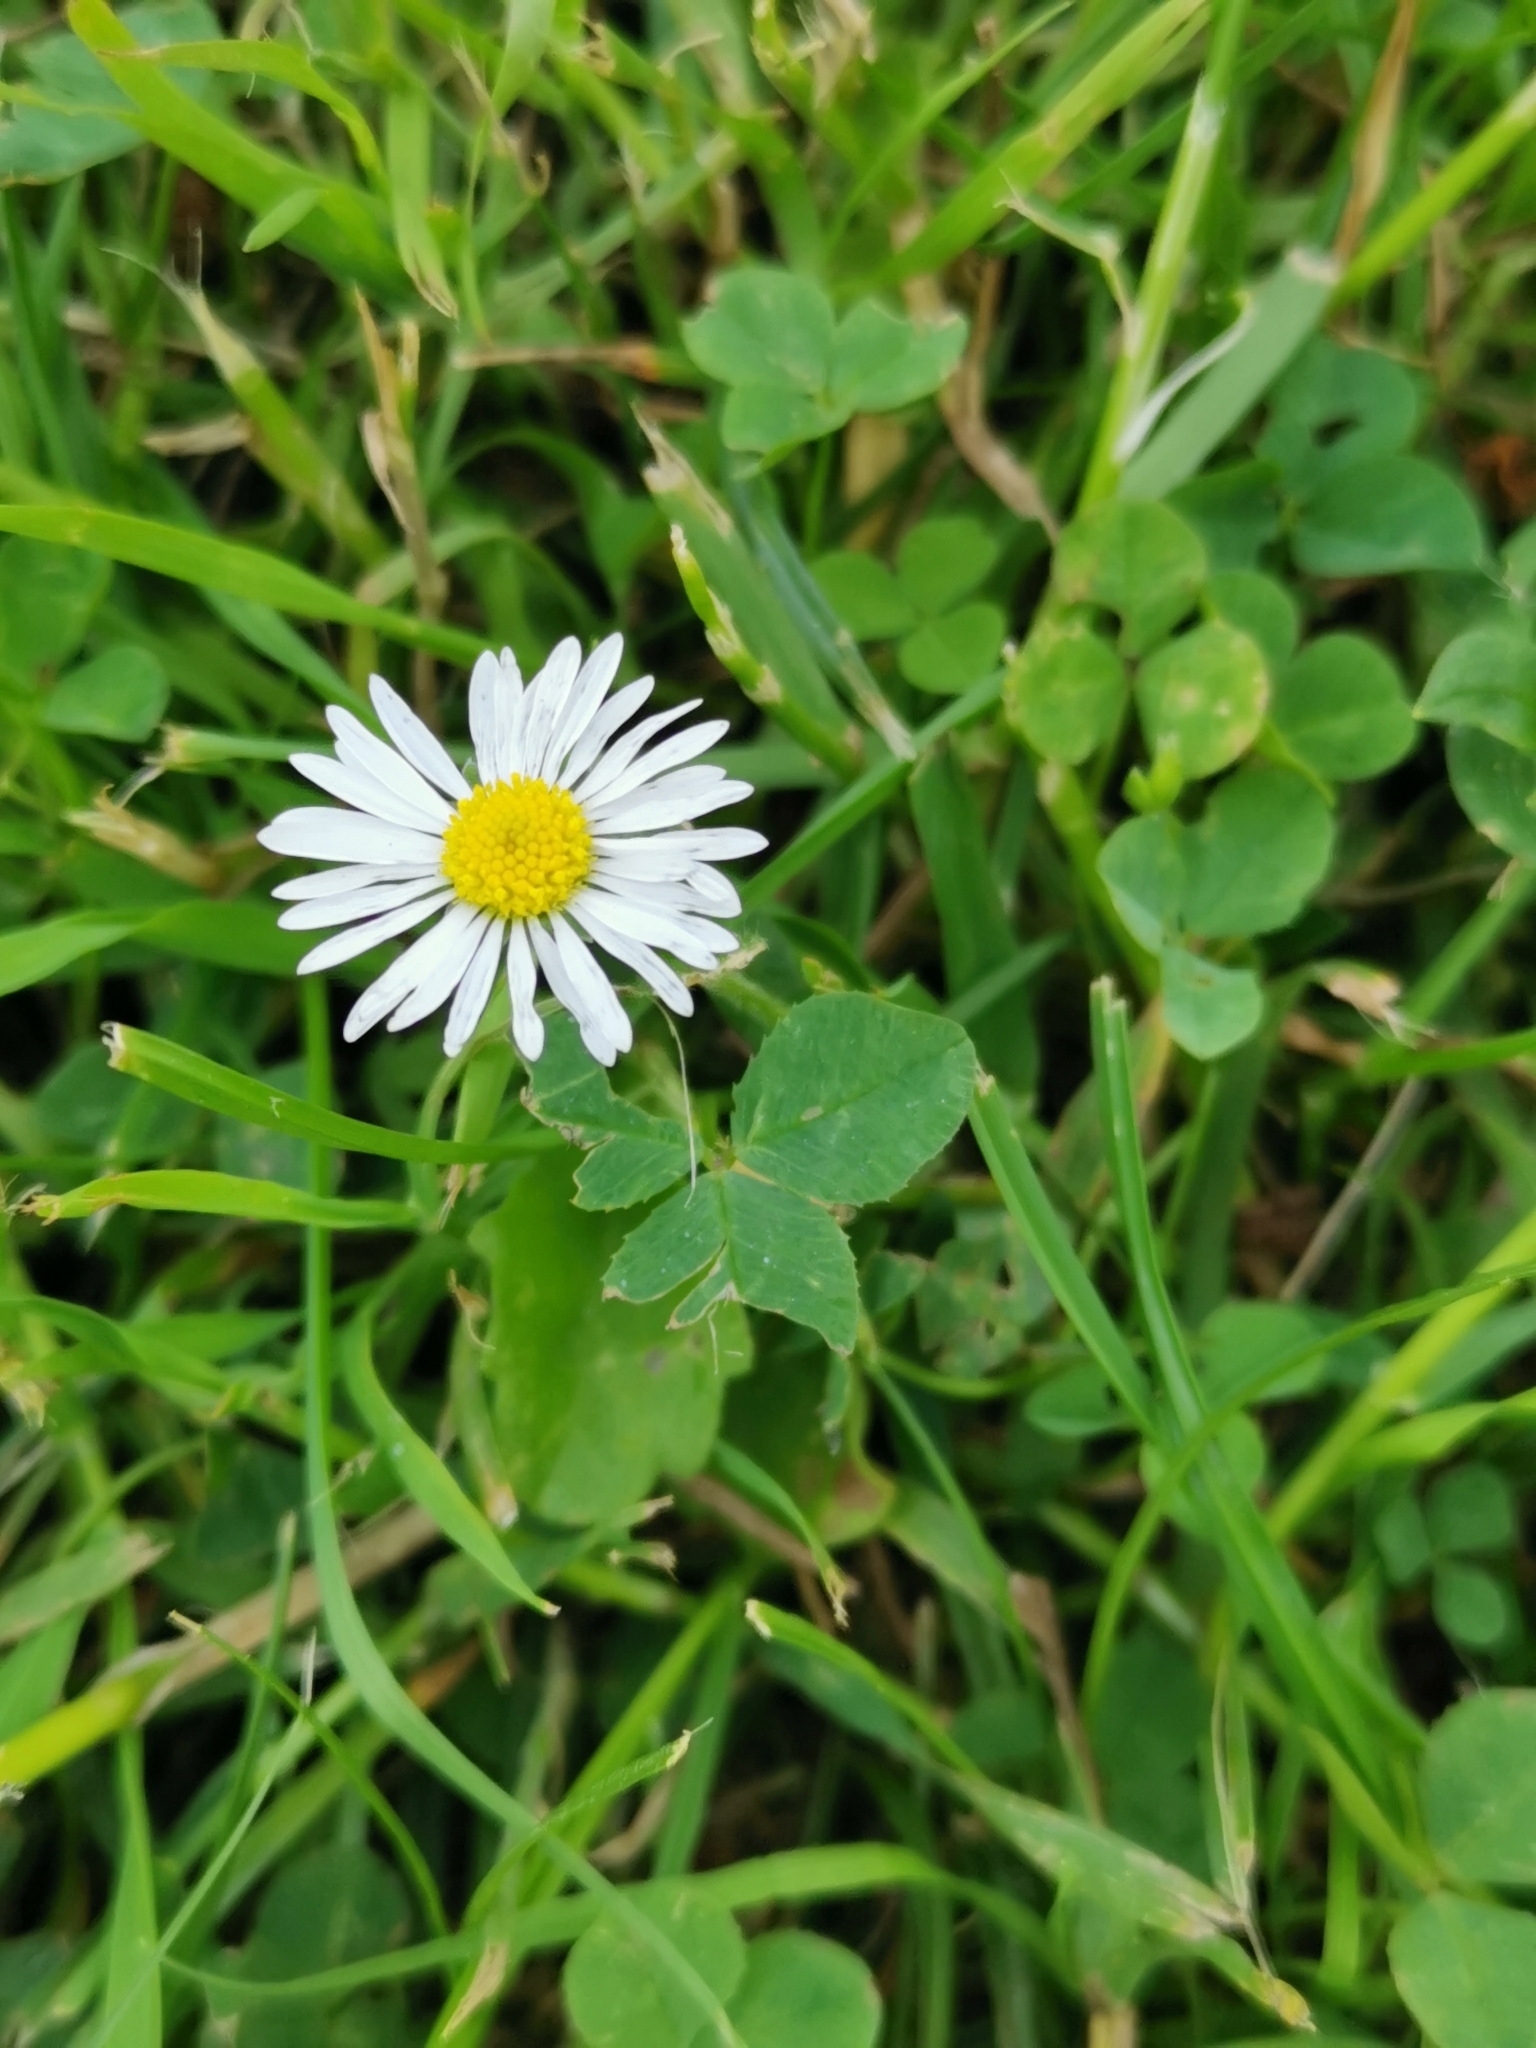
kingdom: Plantae
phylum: Tracheophyta
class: Magnoliopsida
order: Asterales
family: Asteraceae
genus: Bellis
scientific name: Bellis perennis
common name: Lawndaisy
